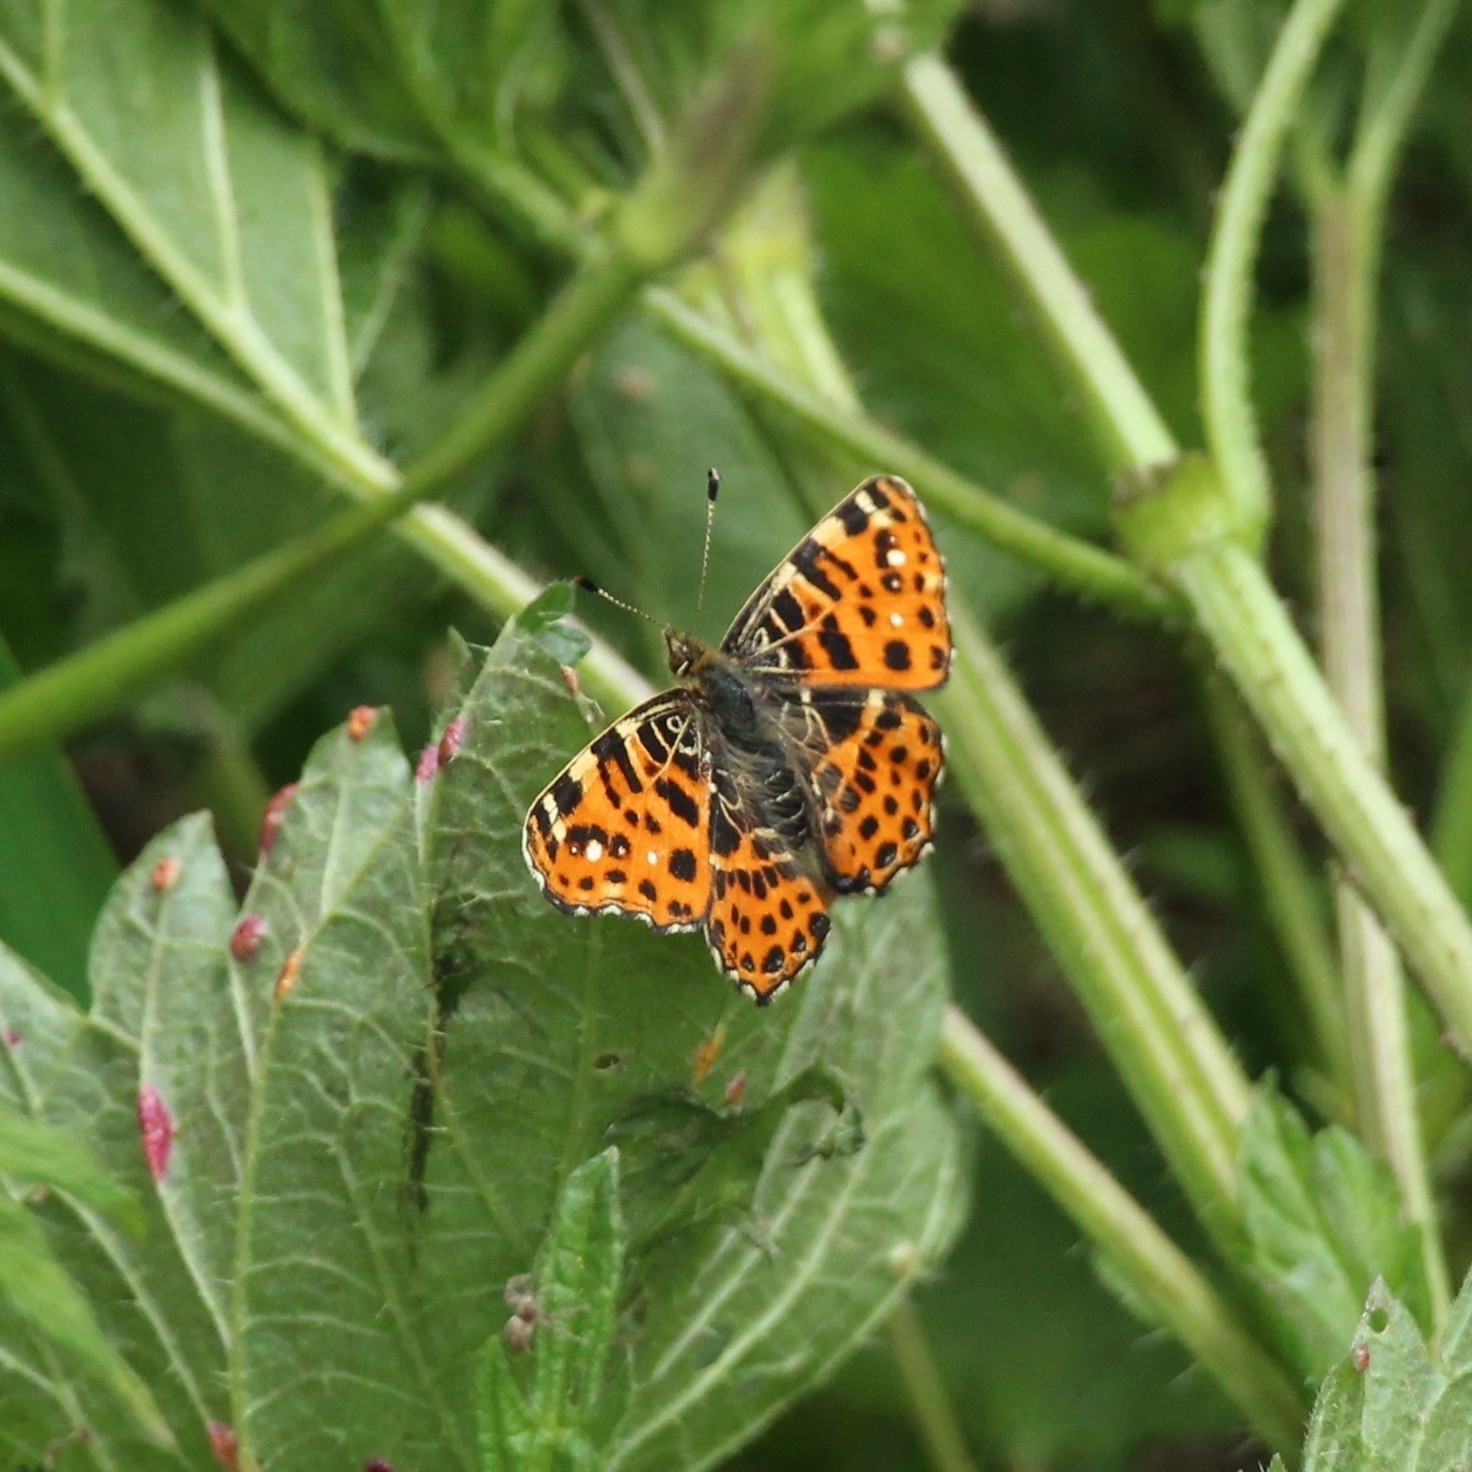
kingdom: Animalia
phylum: Arthropoda
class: Insecta
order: Lepidoptera
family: Nymphalidae
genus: Araschnia
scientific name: Araschnia levana
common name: Map butterfly
